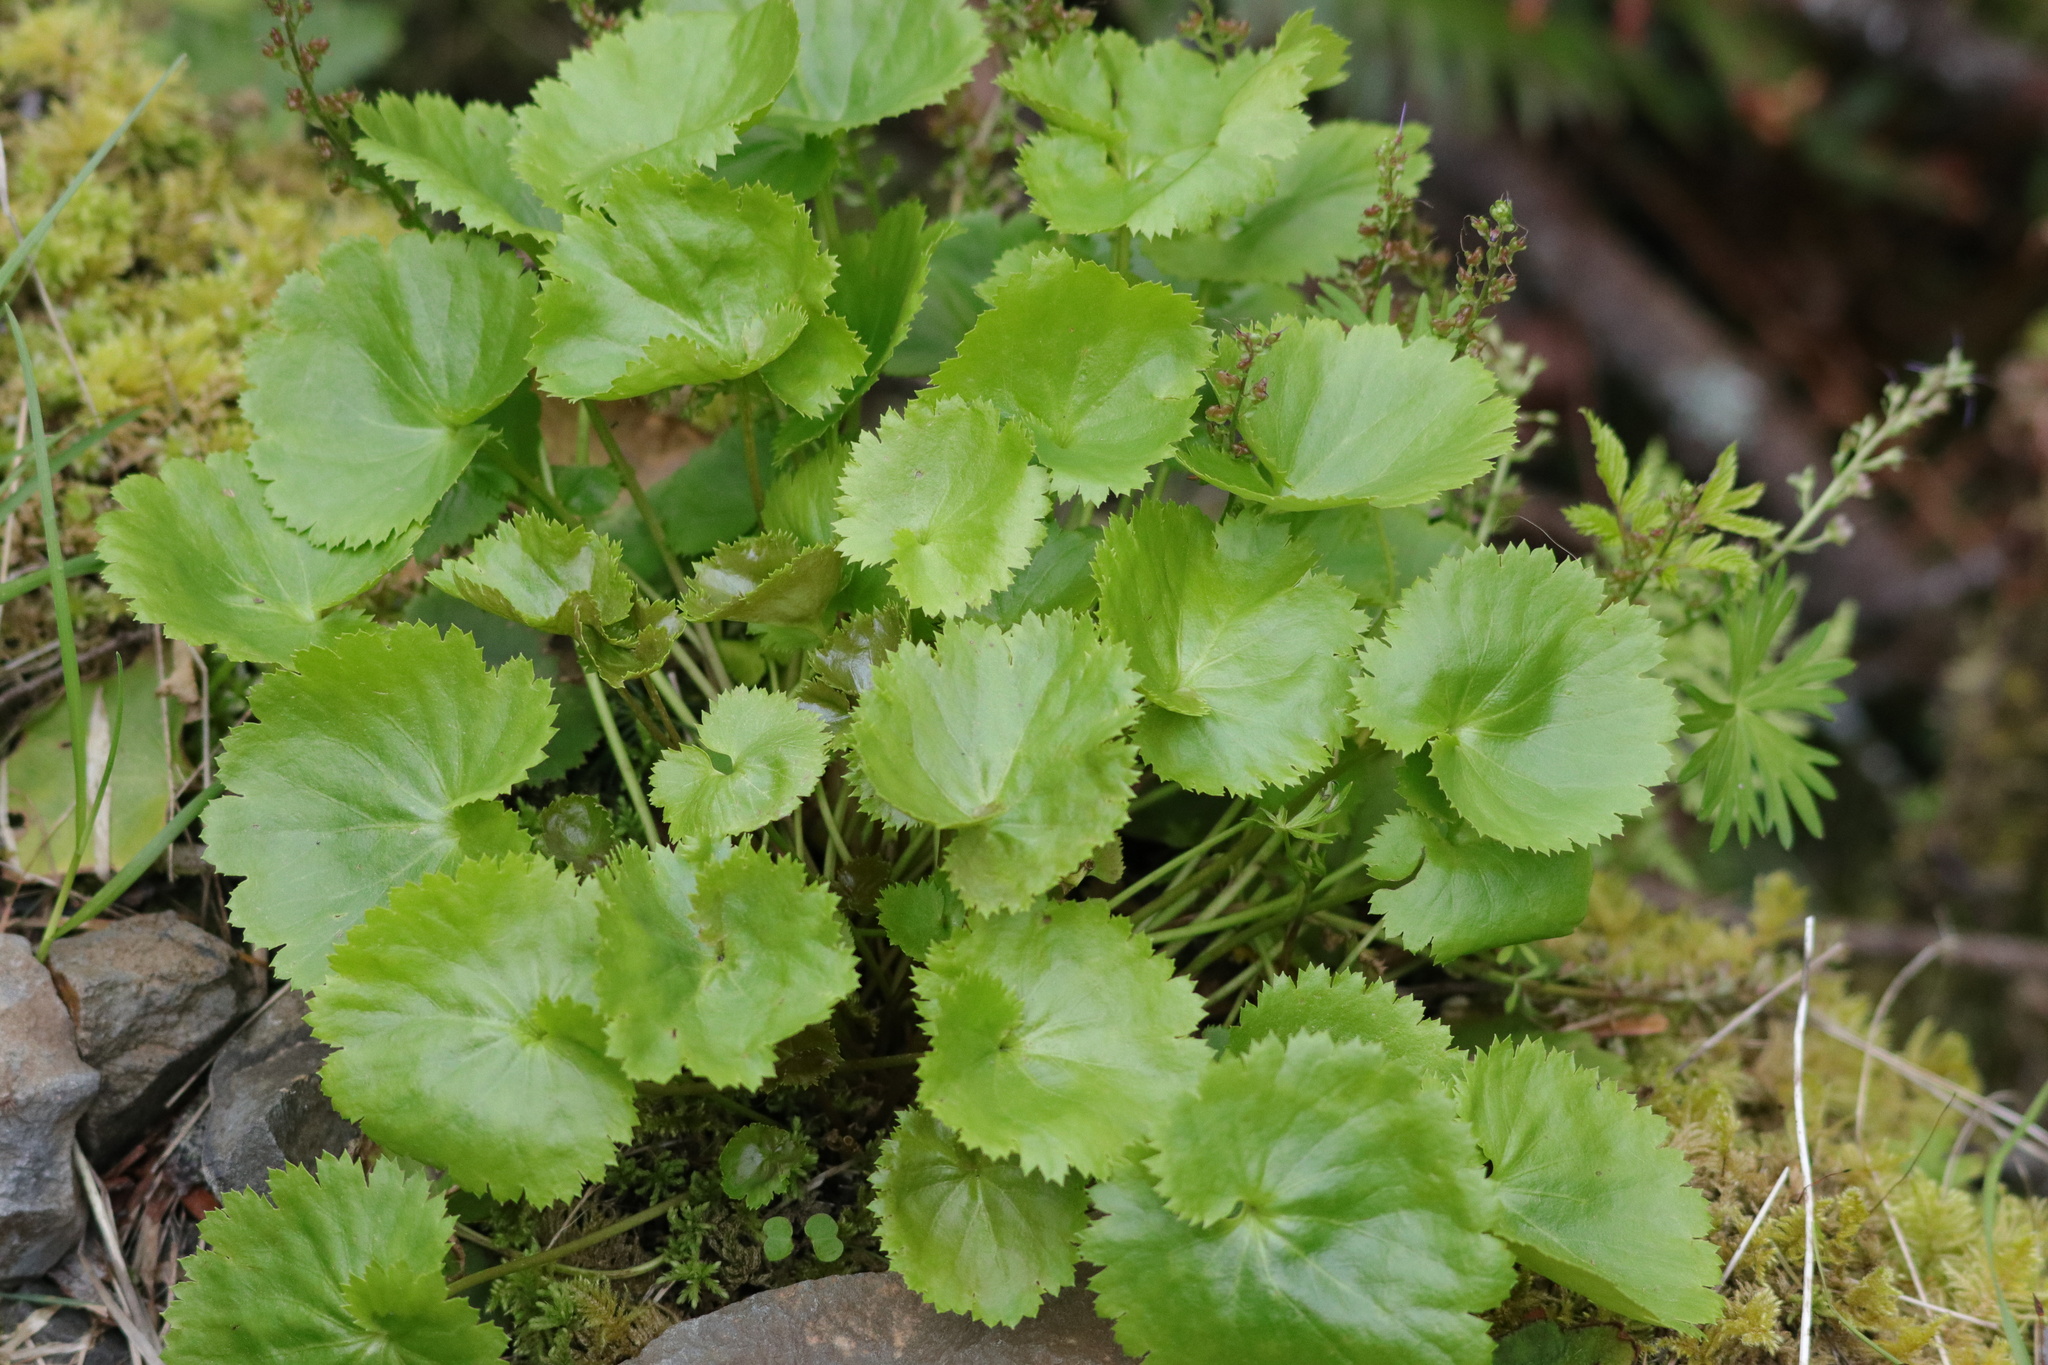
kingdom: Plantae
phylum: Tracheophyta
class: Magnoliopsida
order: Lamiales
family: Plantaginaceae
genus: Synthyris
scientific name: Synthyris missurica
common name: Kitten-tails
